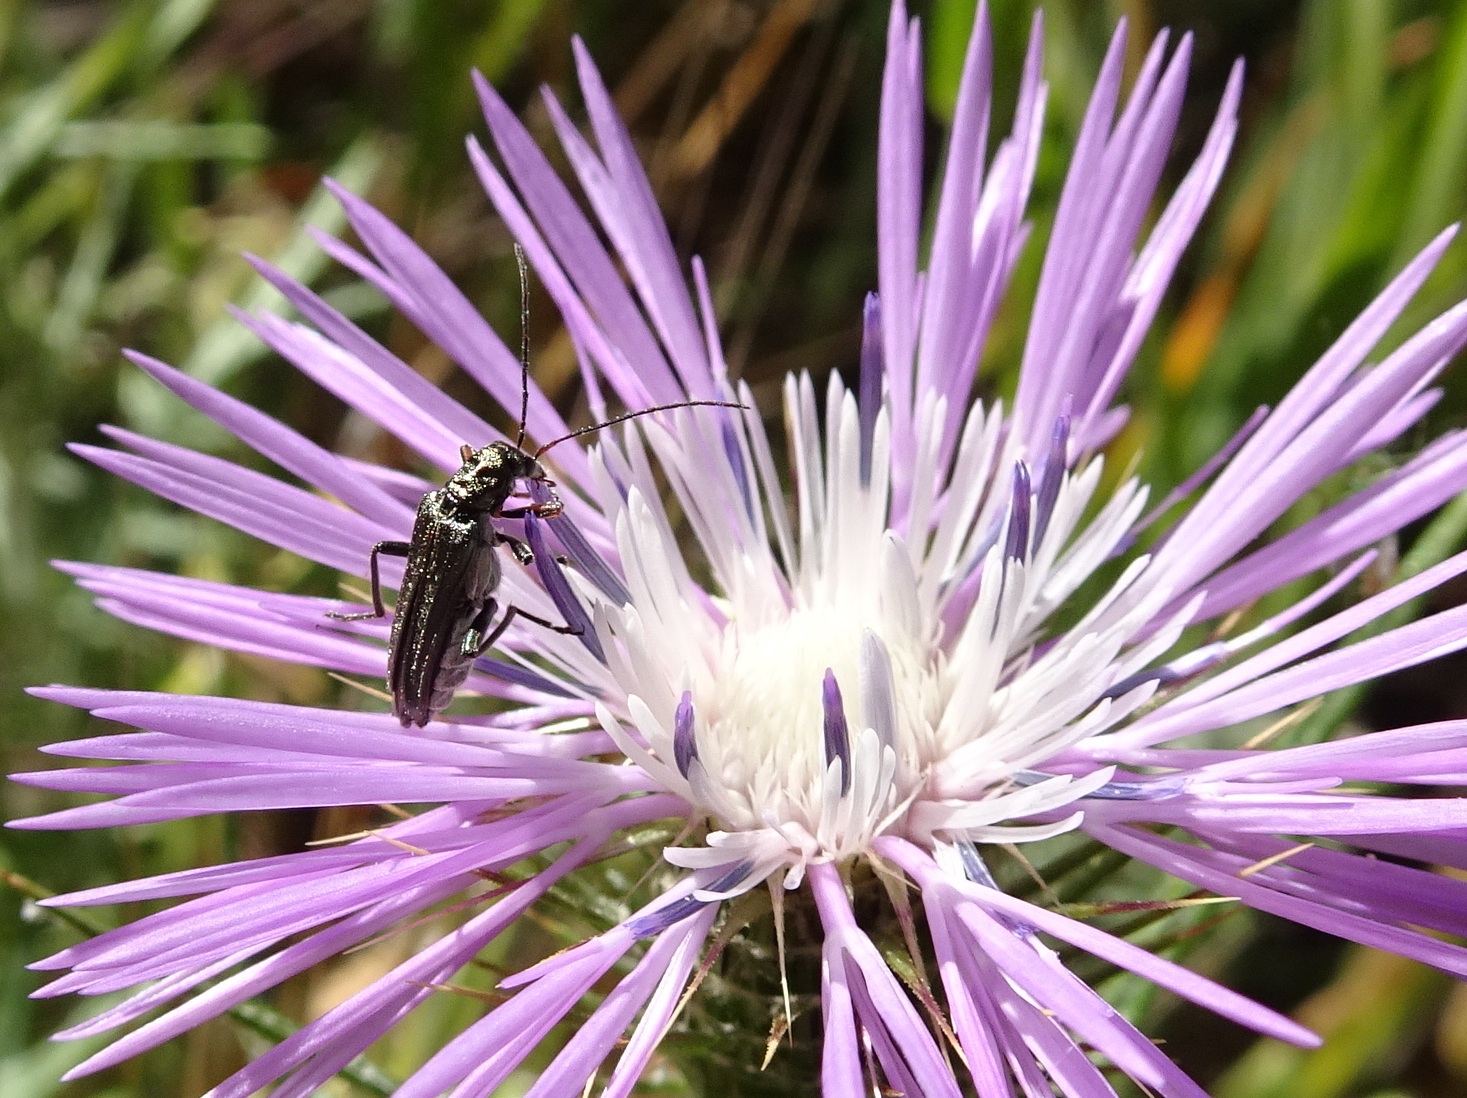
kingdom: Animalia
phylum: Arthropoda
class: Insecta
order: Coleoptera
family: Oedemeridae
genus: Oedemera
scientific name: Oedemera flavipes
